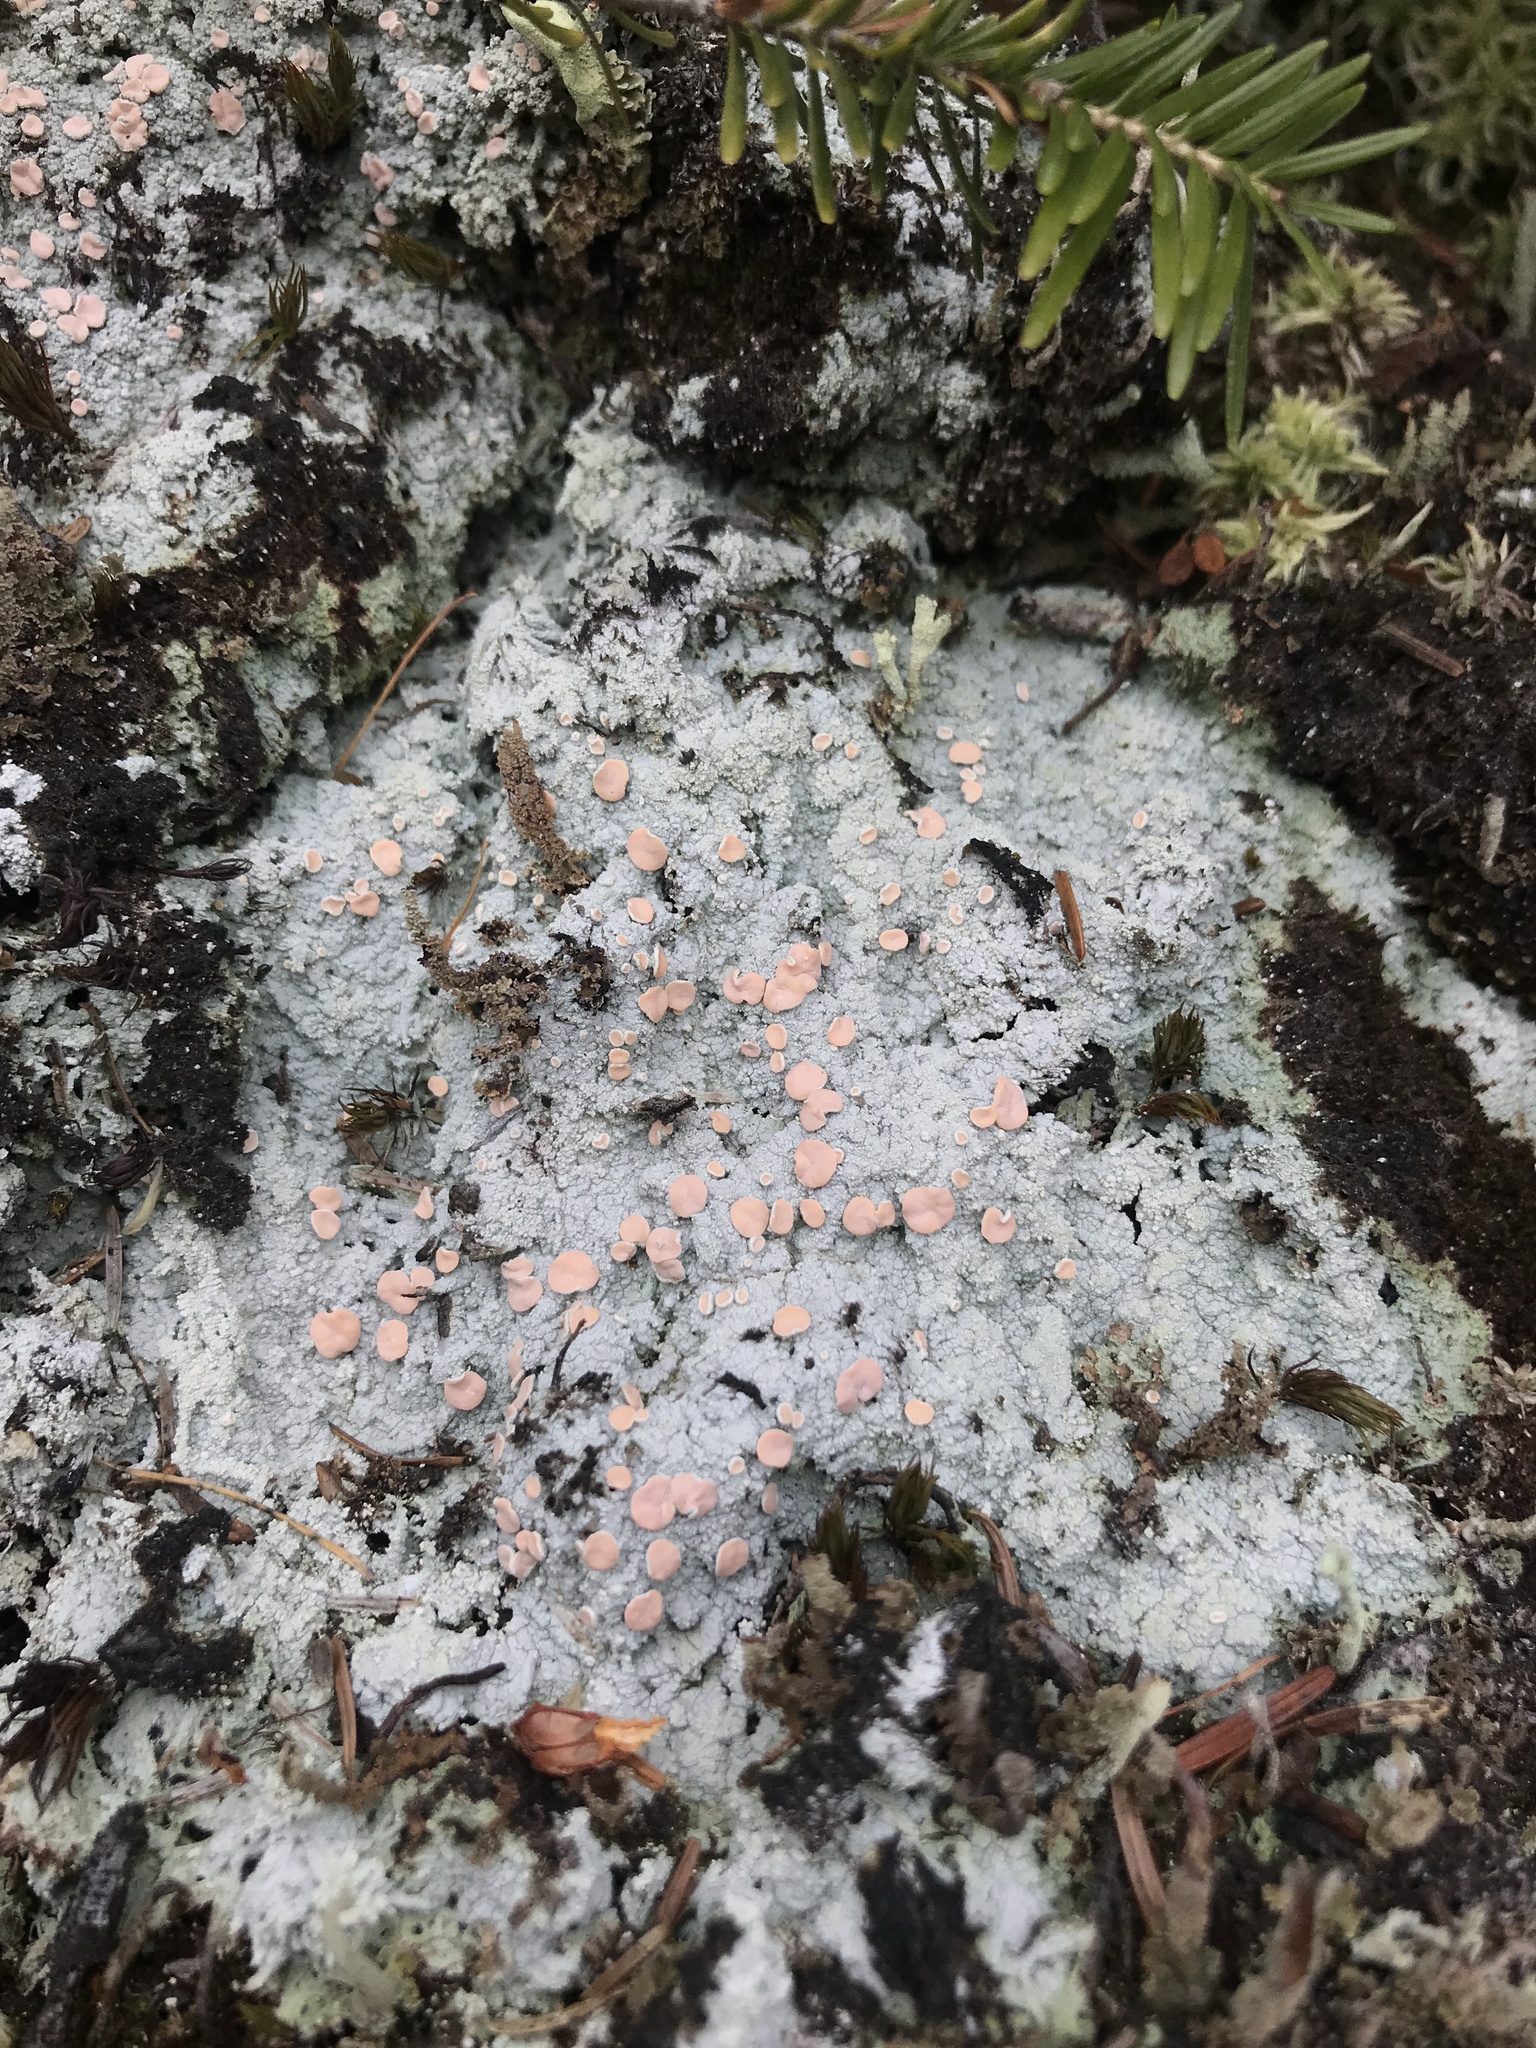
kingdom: Fungi
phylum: Ascomycota
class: Lecanoromycetes
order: Pertusariales
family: Icmadophilaceae
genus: Icmadophila
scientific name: Icmadophila ericetorum
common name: Candy lichen
